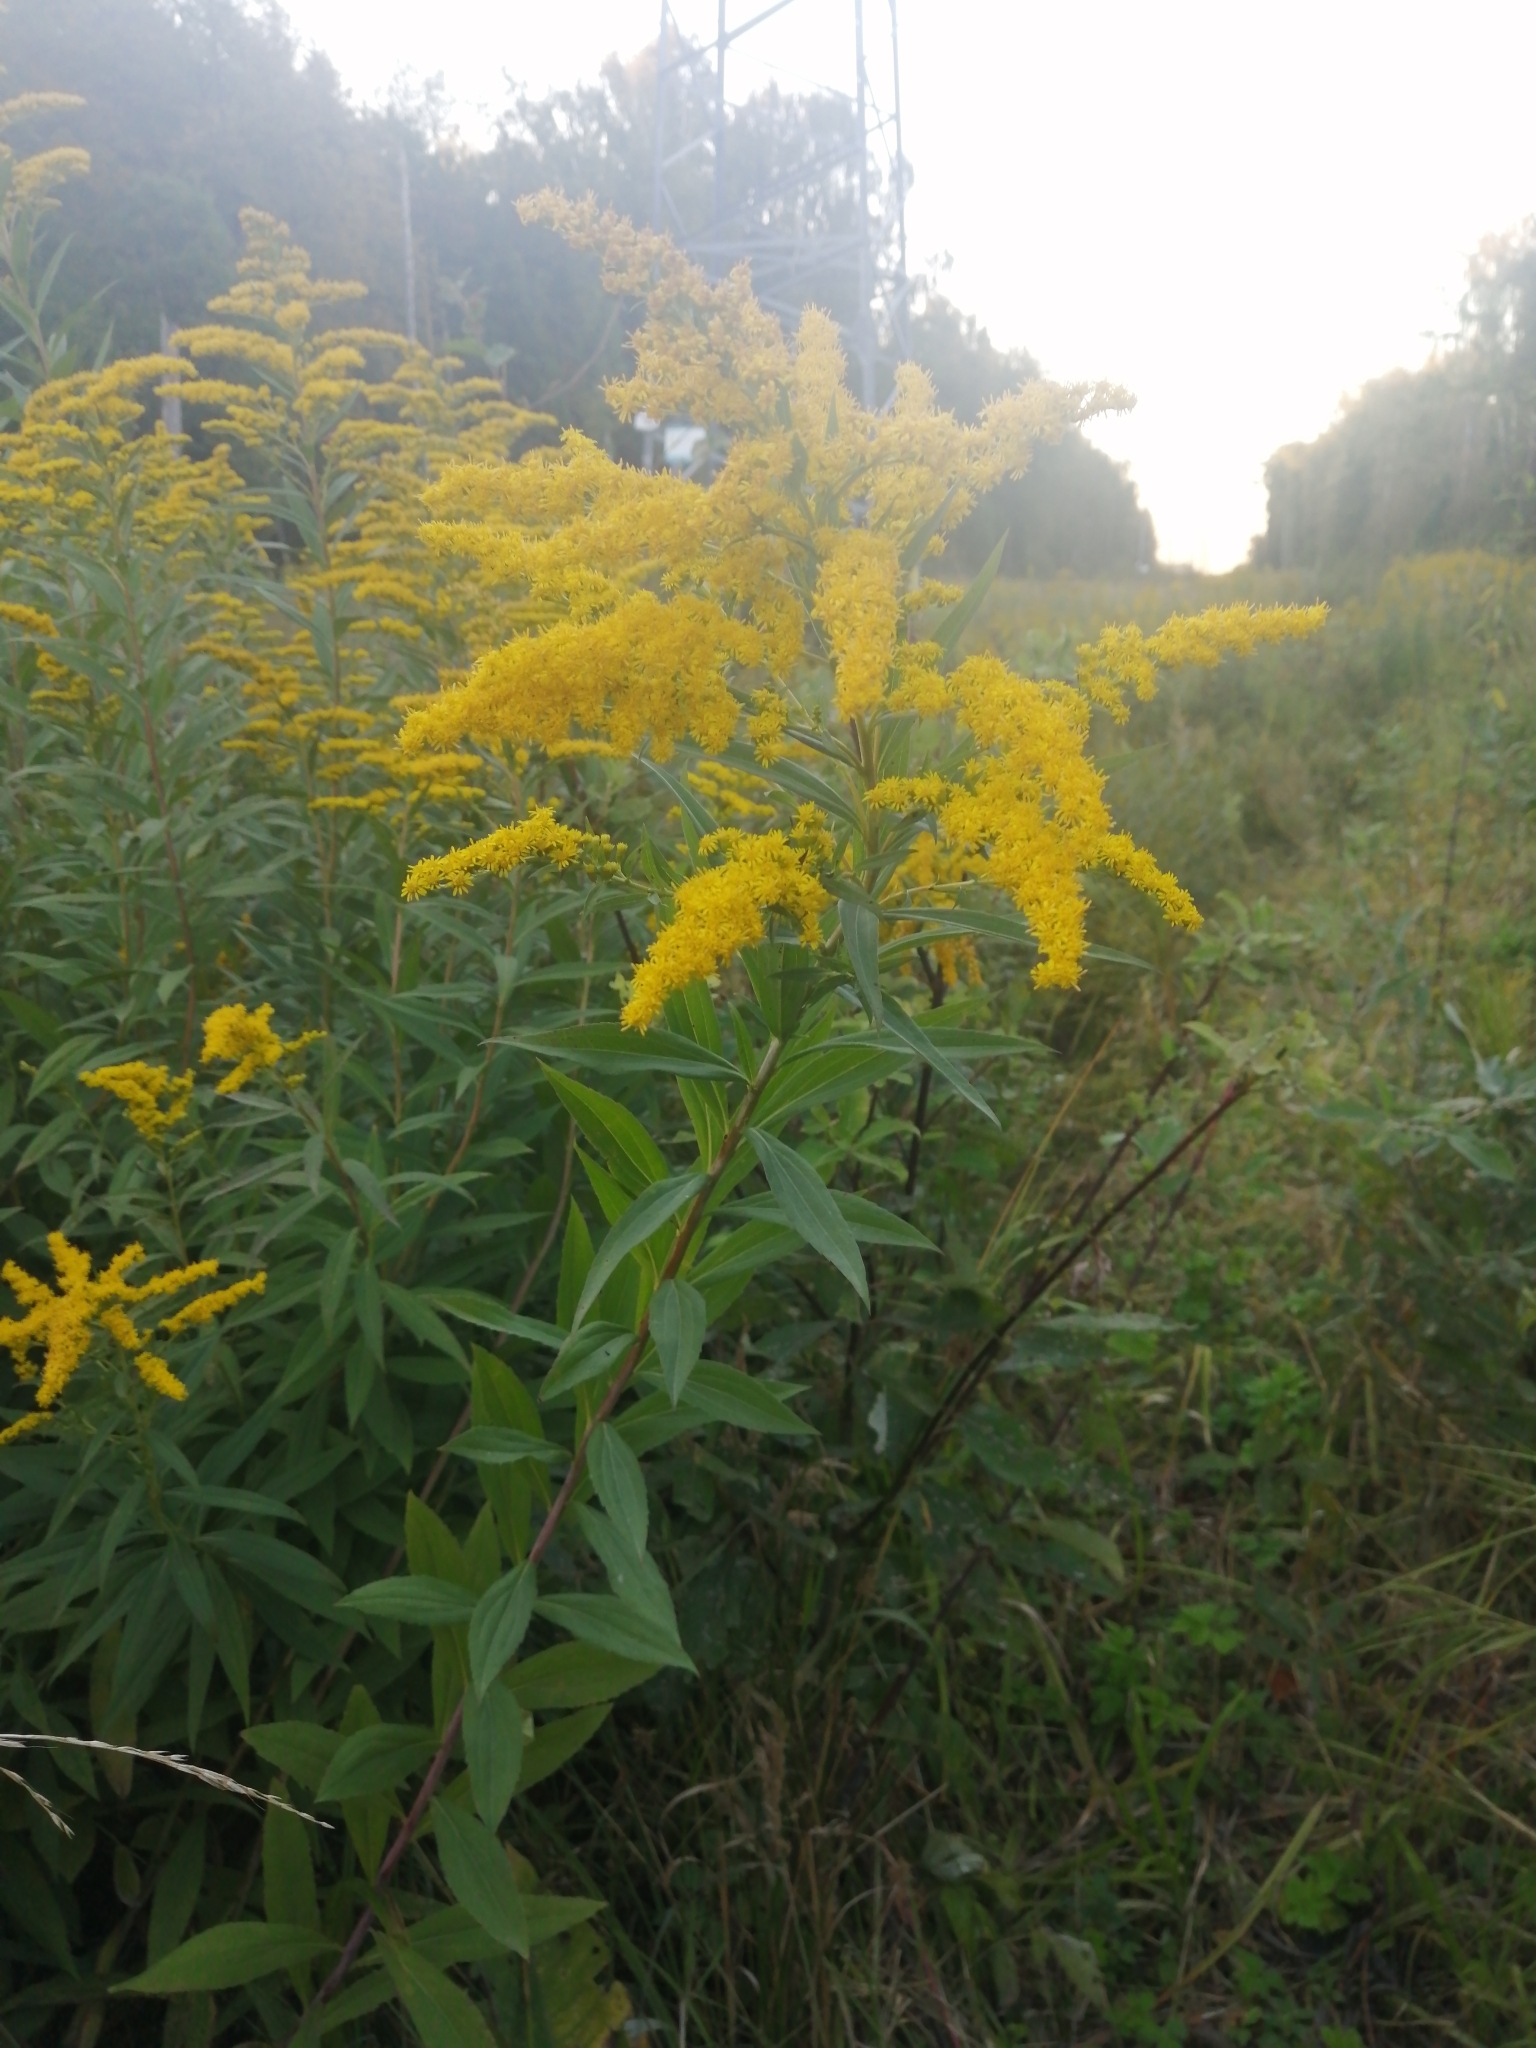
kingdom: Plantae
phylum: Tracheophyta
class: Magnoliopsida
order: Asterales
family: Asteraceae
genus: Solidago
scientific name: Solidago gigantea
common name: Giant goldenrod
